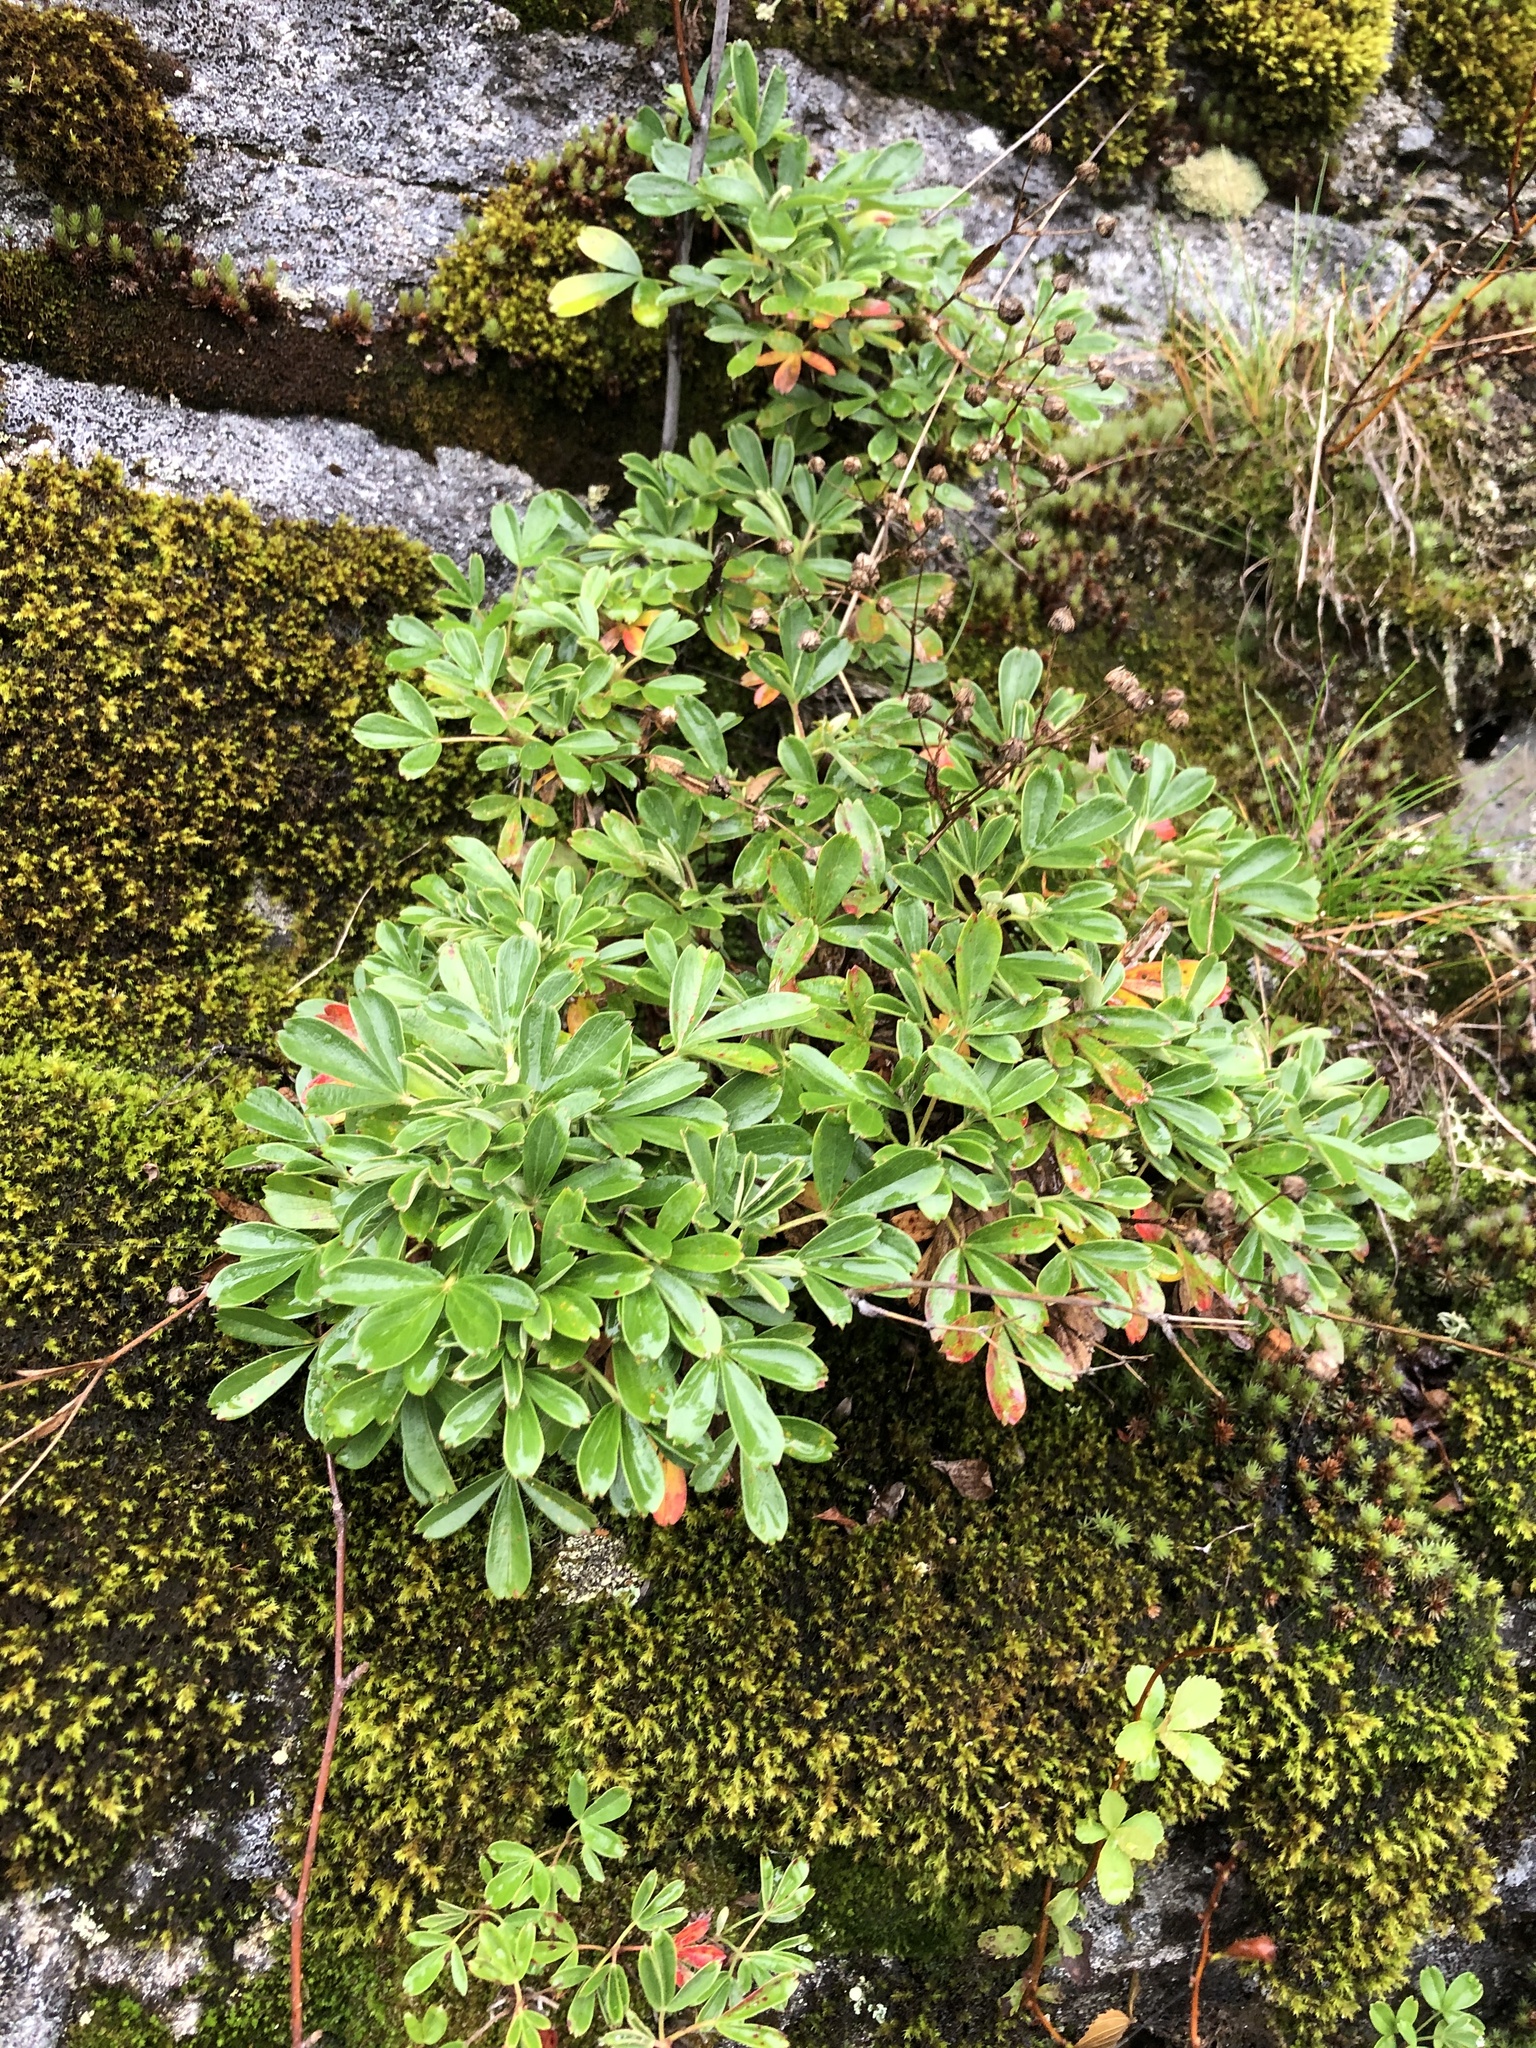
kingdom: Plantae
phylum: Tracheophyta
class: Magnoliopsida
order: Rosales
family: Rosaceae
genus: Sibbaldia
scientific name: Sibbaldia tridentata
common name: Three-toothed cinquefoil
